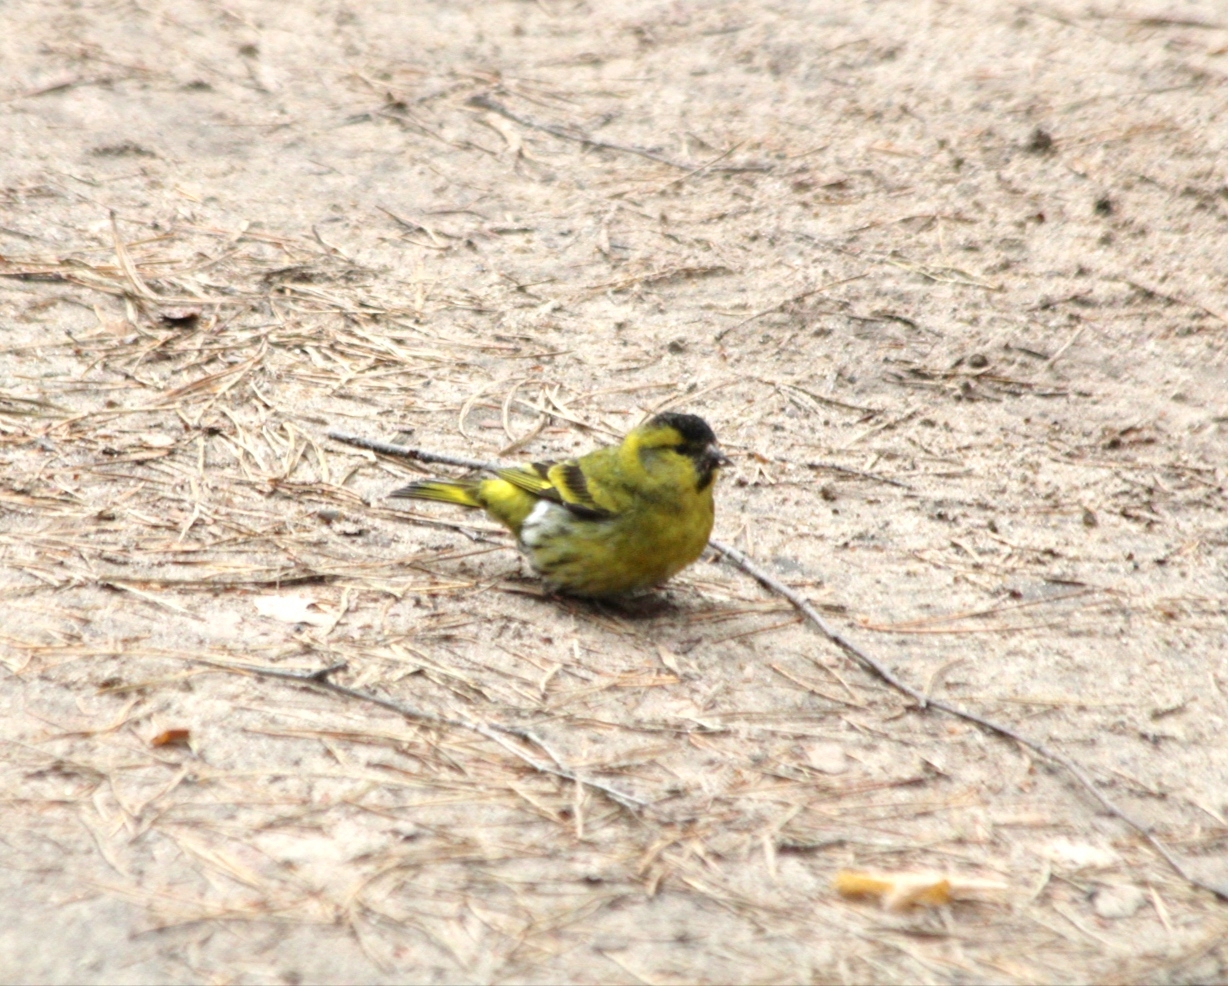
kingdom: Animalia
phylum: Chordata
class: Aves
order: Passeriformes
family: Fringillidae
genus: Spinus
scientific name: Spinus spinus
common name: Eurasian siskin
